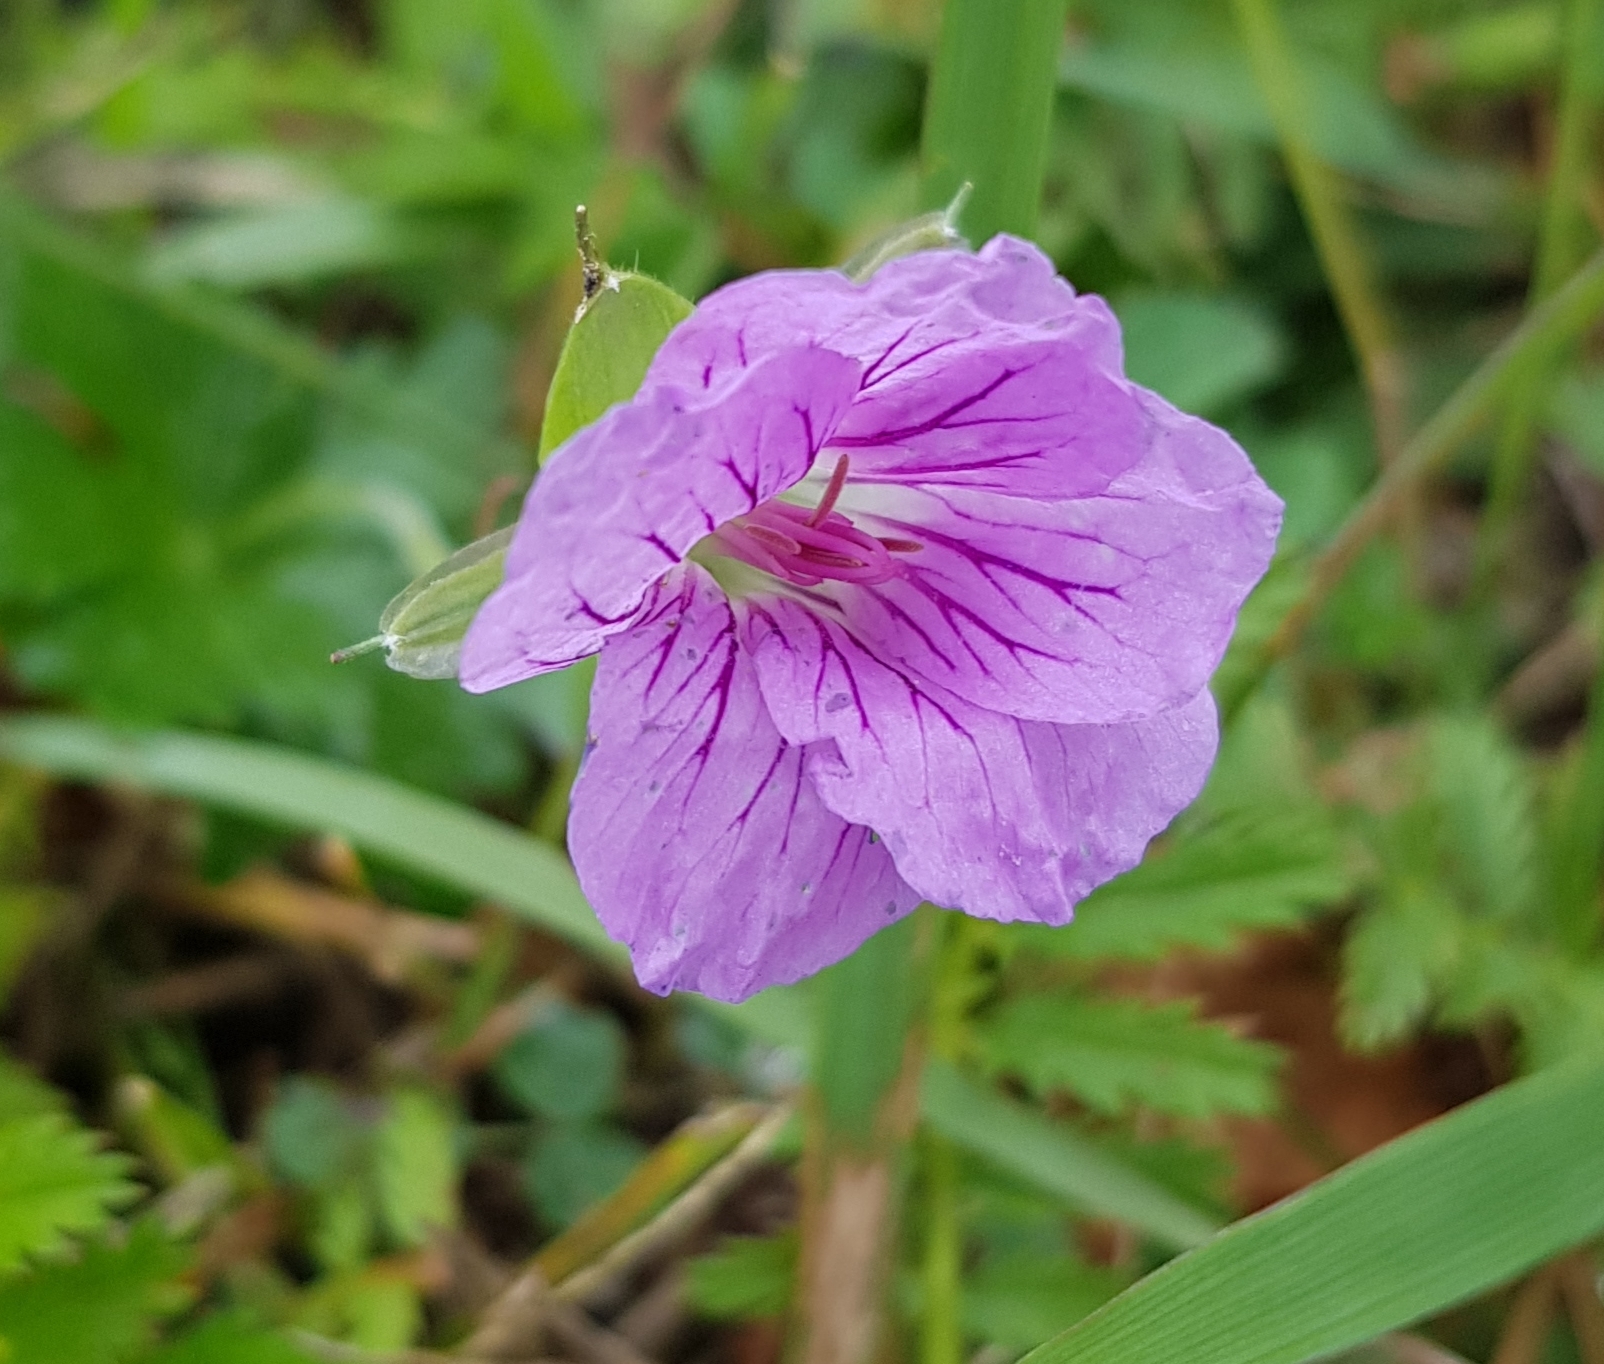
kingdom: Plantae
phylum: Tracheophyta
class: Magnoliopsida
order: Geraniales
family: Geraniaceae
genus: Geranium
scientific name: Geranium wlassovianum
